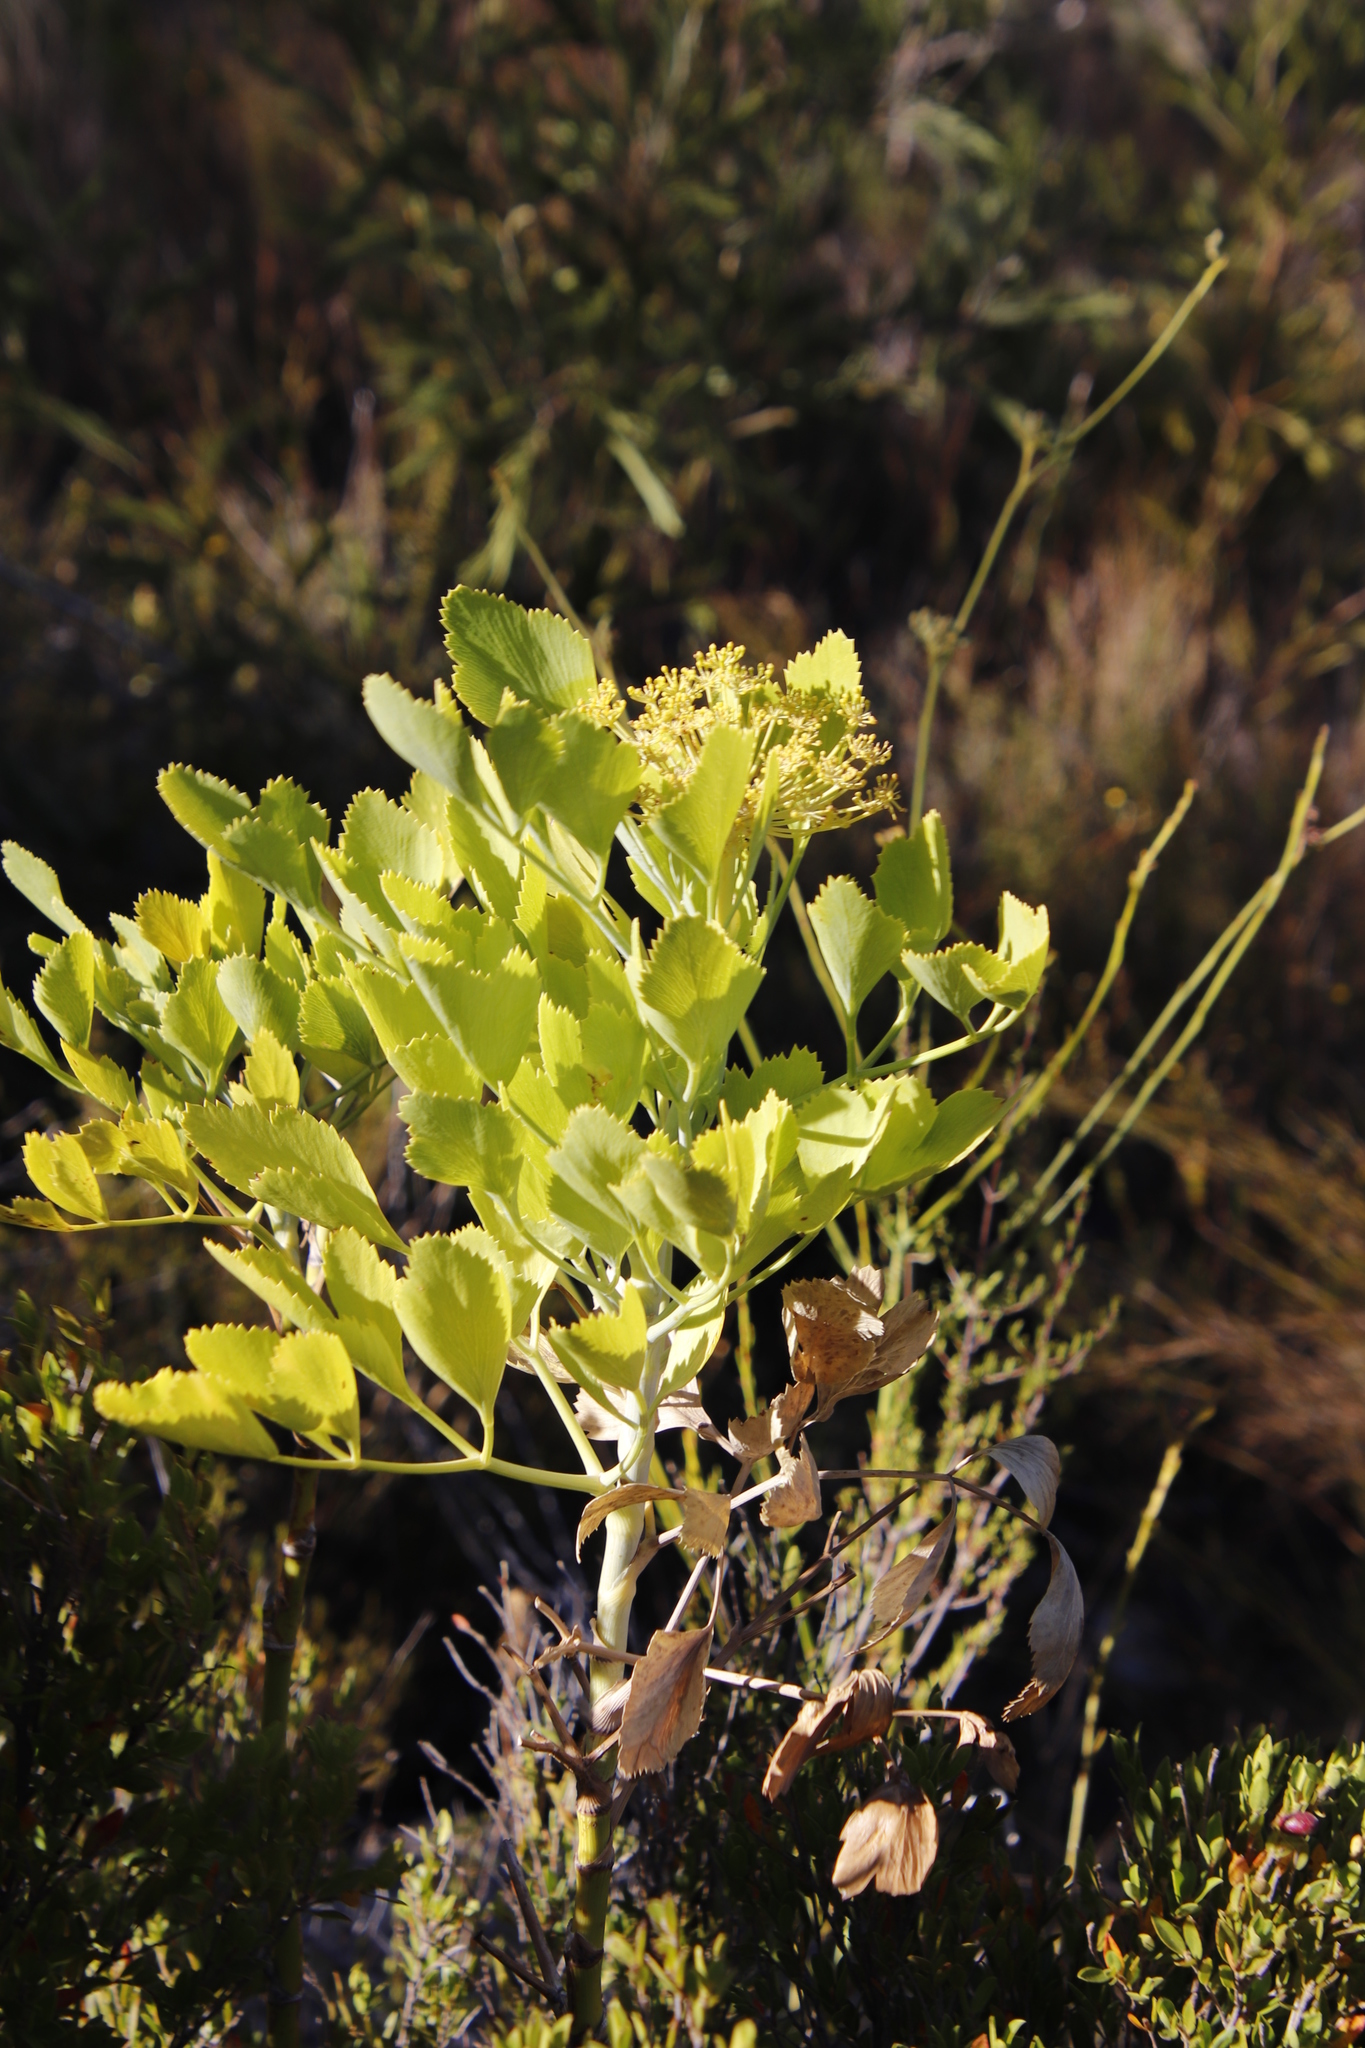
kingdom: Plantae
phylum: Tracheophyta
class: Magnoliopsida
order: Apiales
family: Apiaceae
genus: Notobubon
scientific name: Notobubon galbanum
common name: Blisterbush
